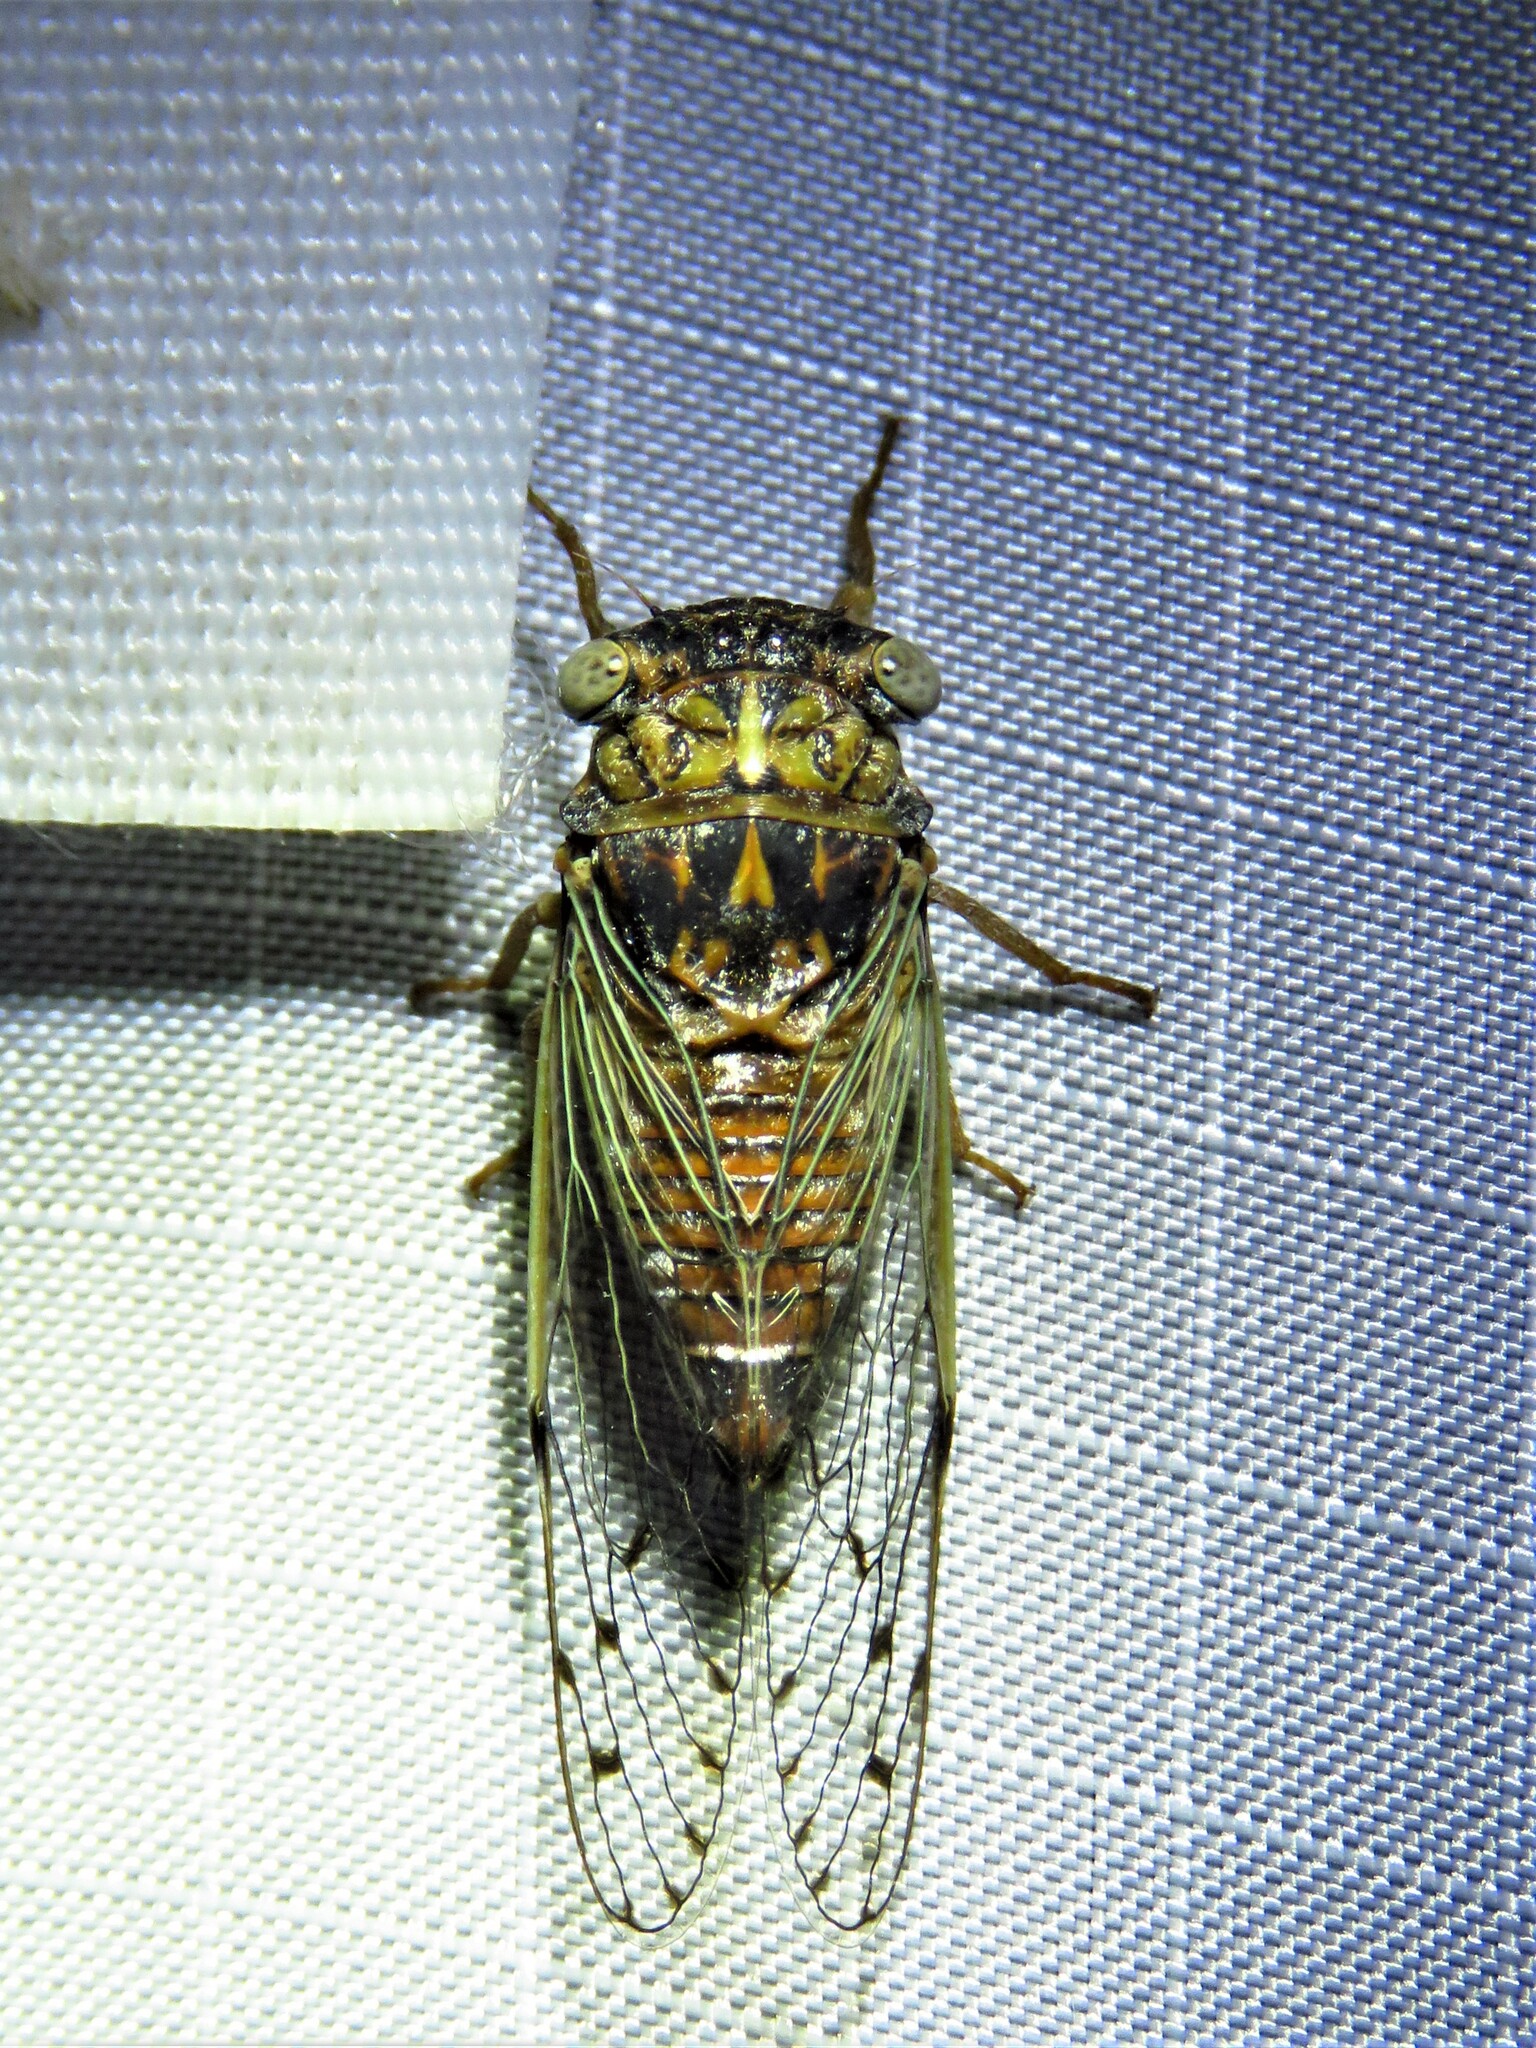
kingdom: Animalia
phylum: Arthropoda
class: Insecta
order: Hemiptera
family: Cicadidae
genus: Pacarina
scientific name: Pacarina puella
